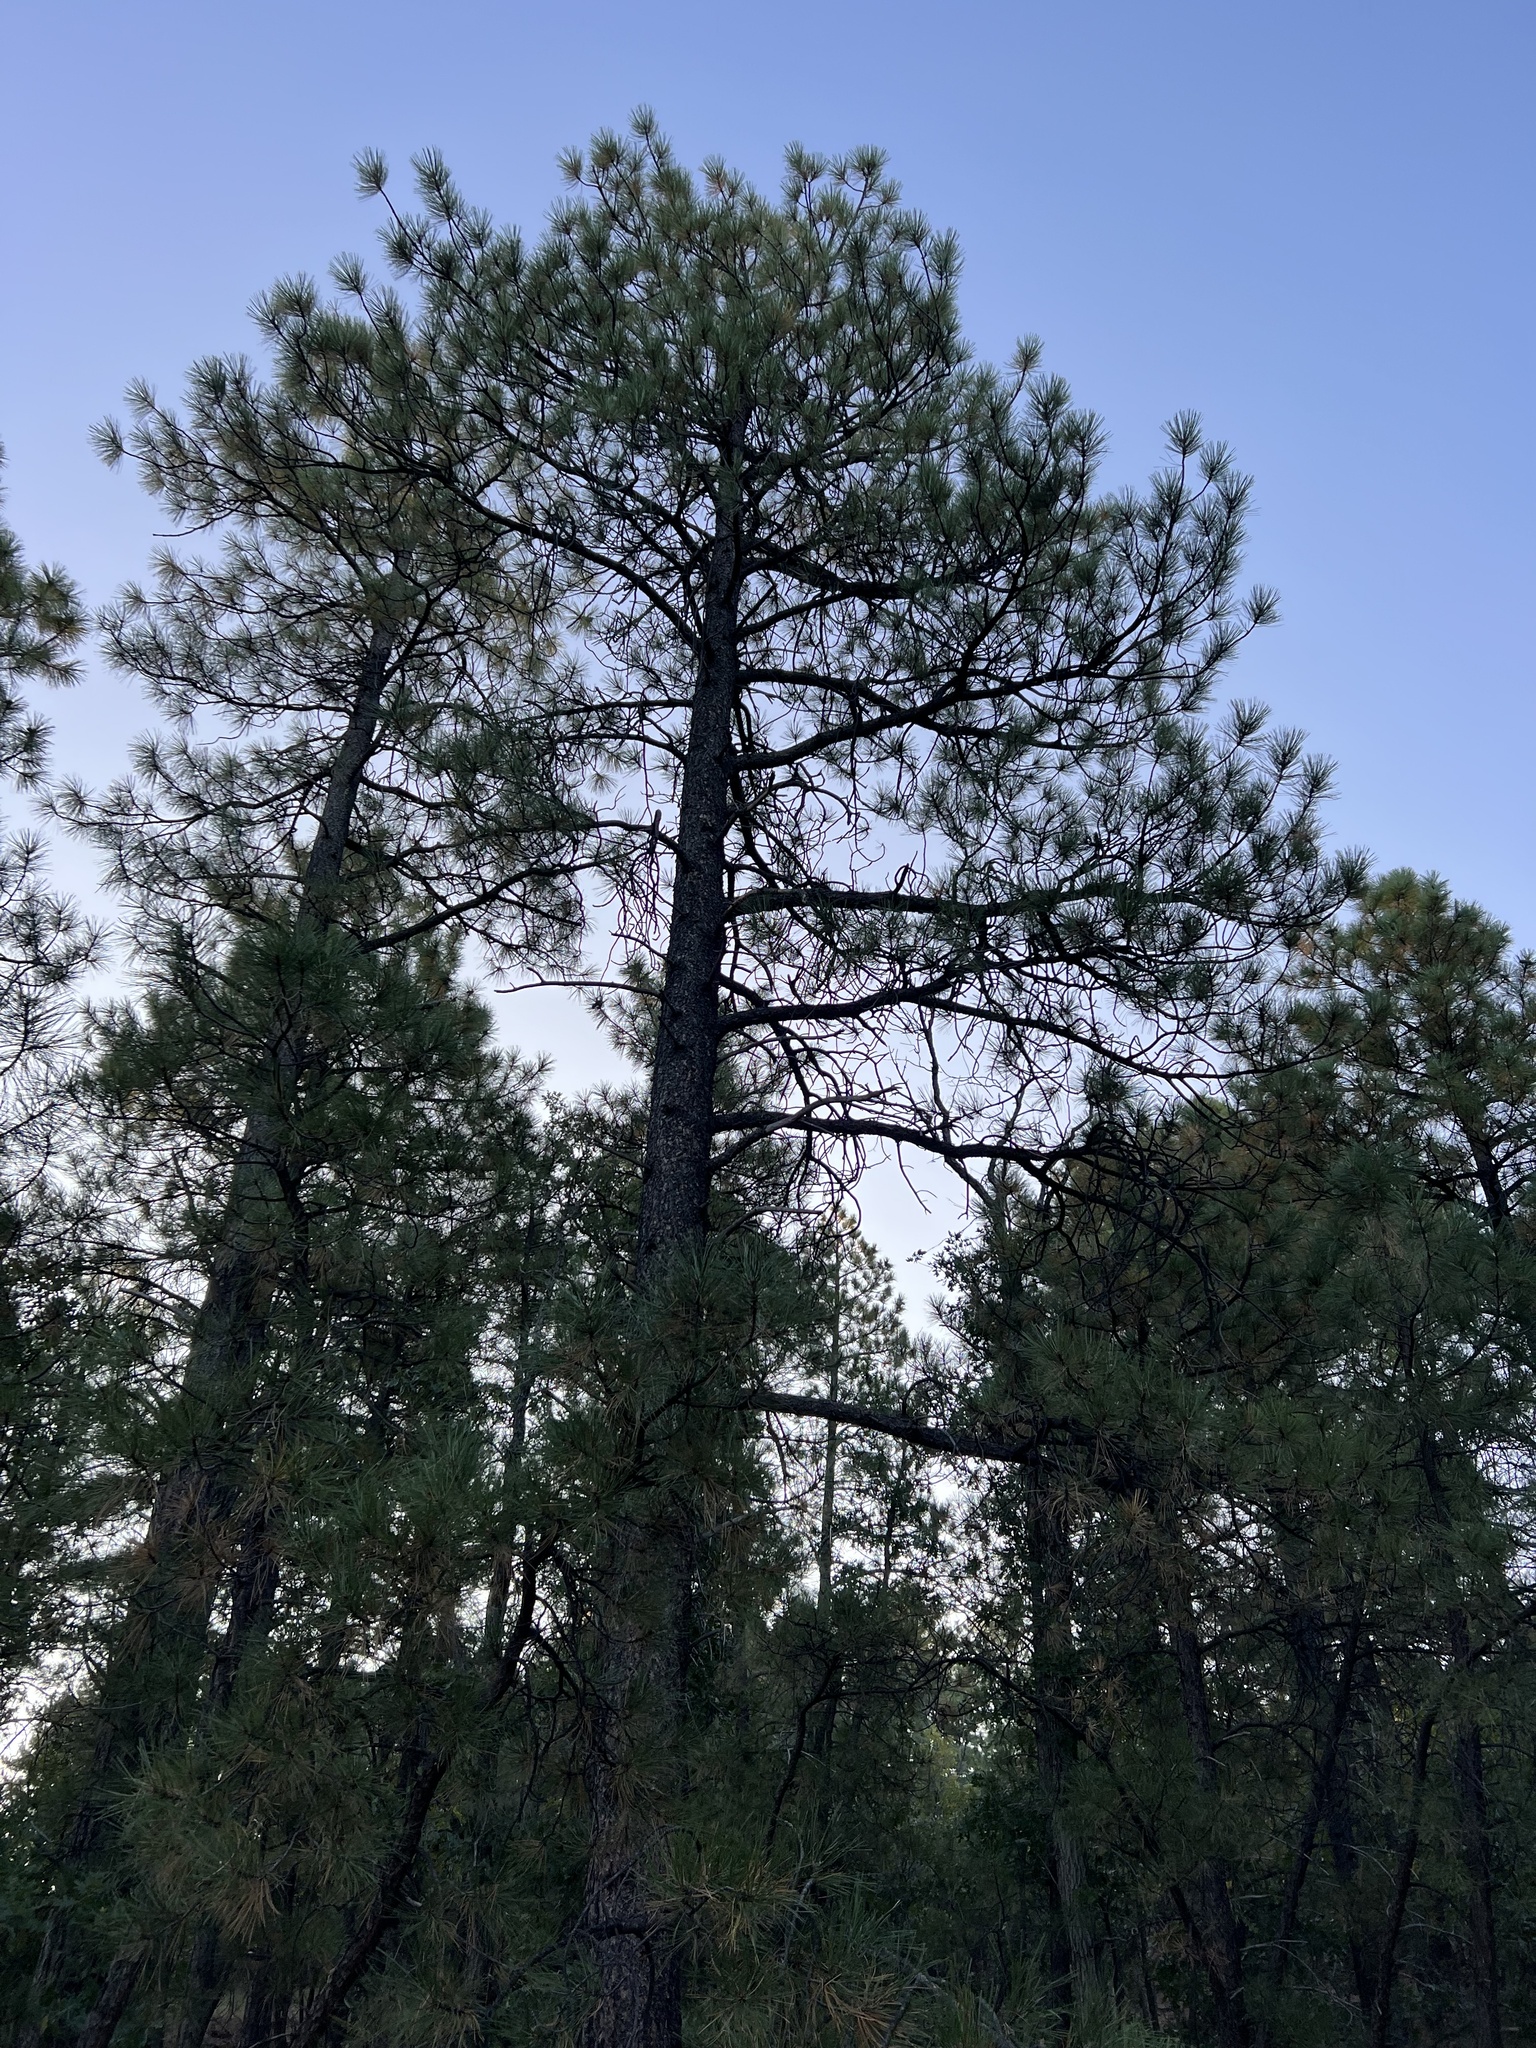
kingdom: Plantae
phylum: Tracheophyta
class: Pinopsida
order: Pinales
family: Pinaceae
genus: Pinus
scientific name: Pinus ponderosa
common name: Western yellow-pine
